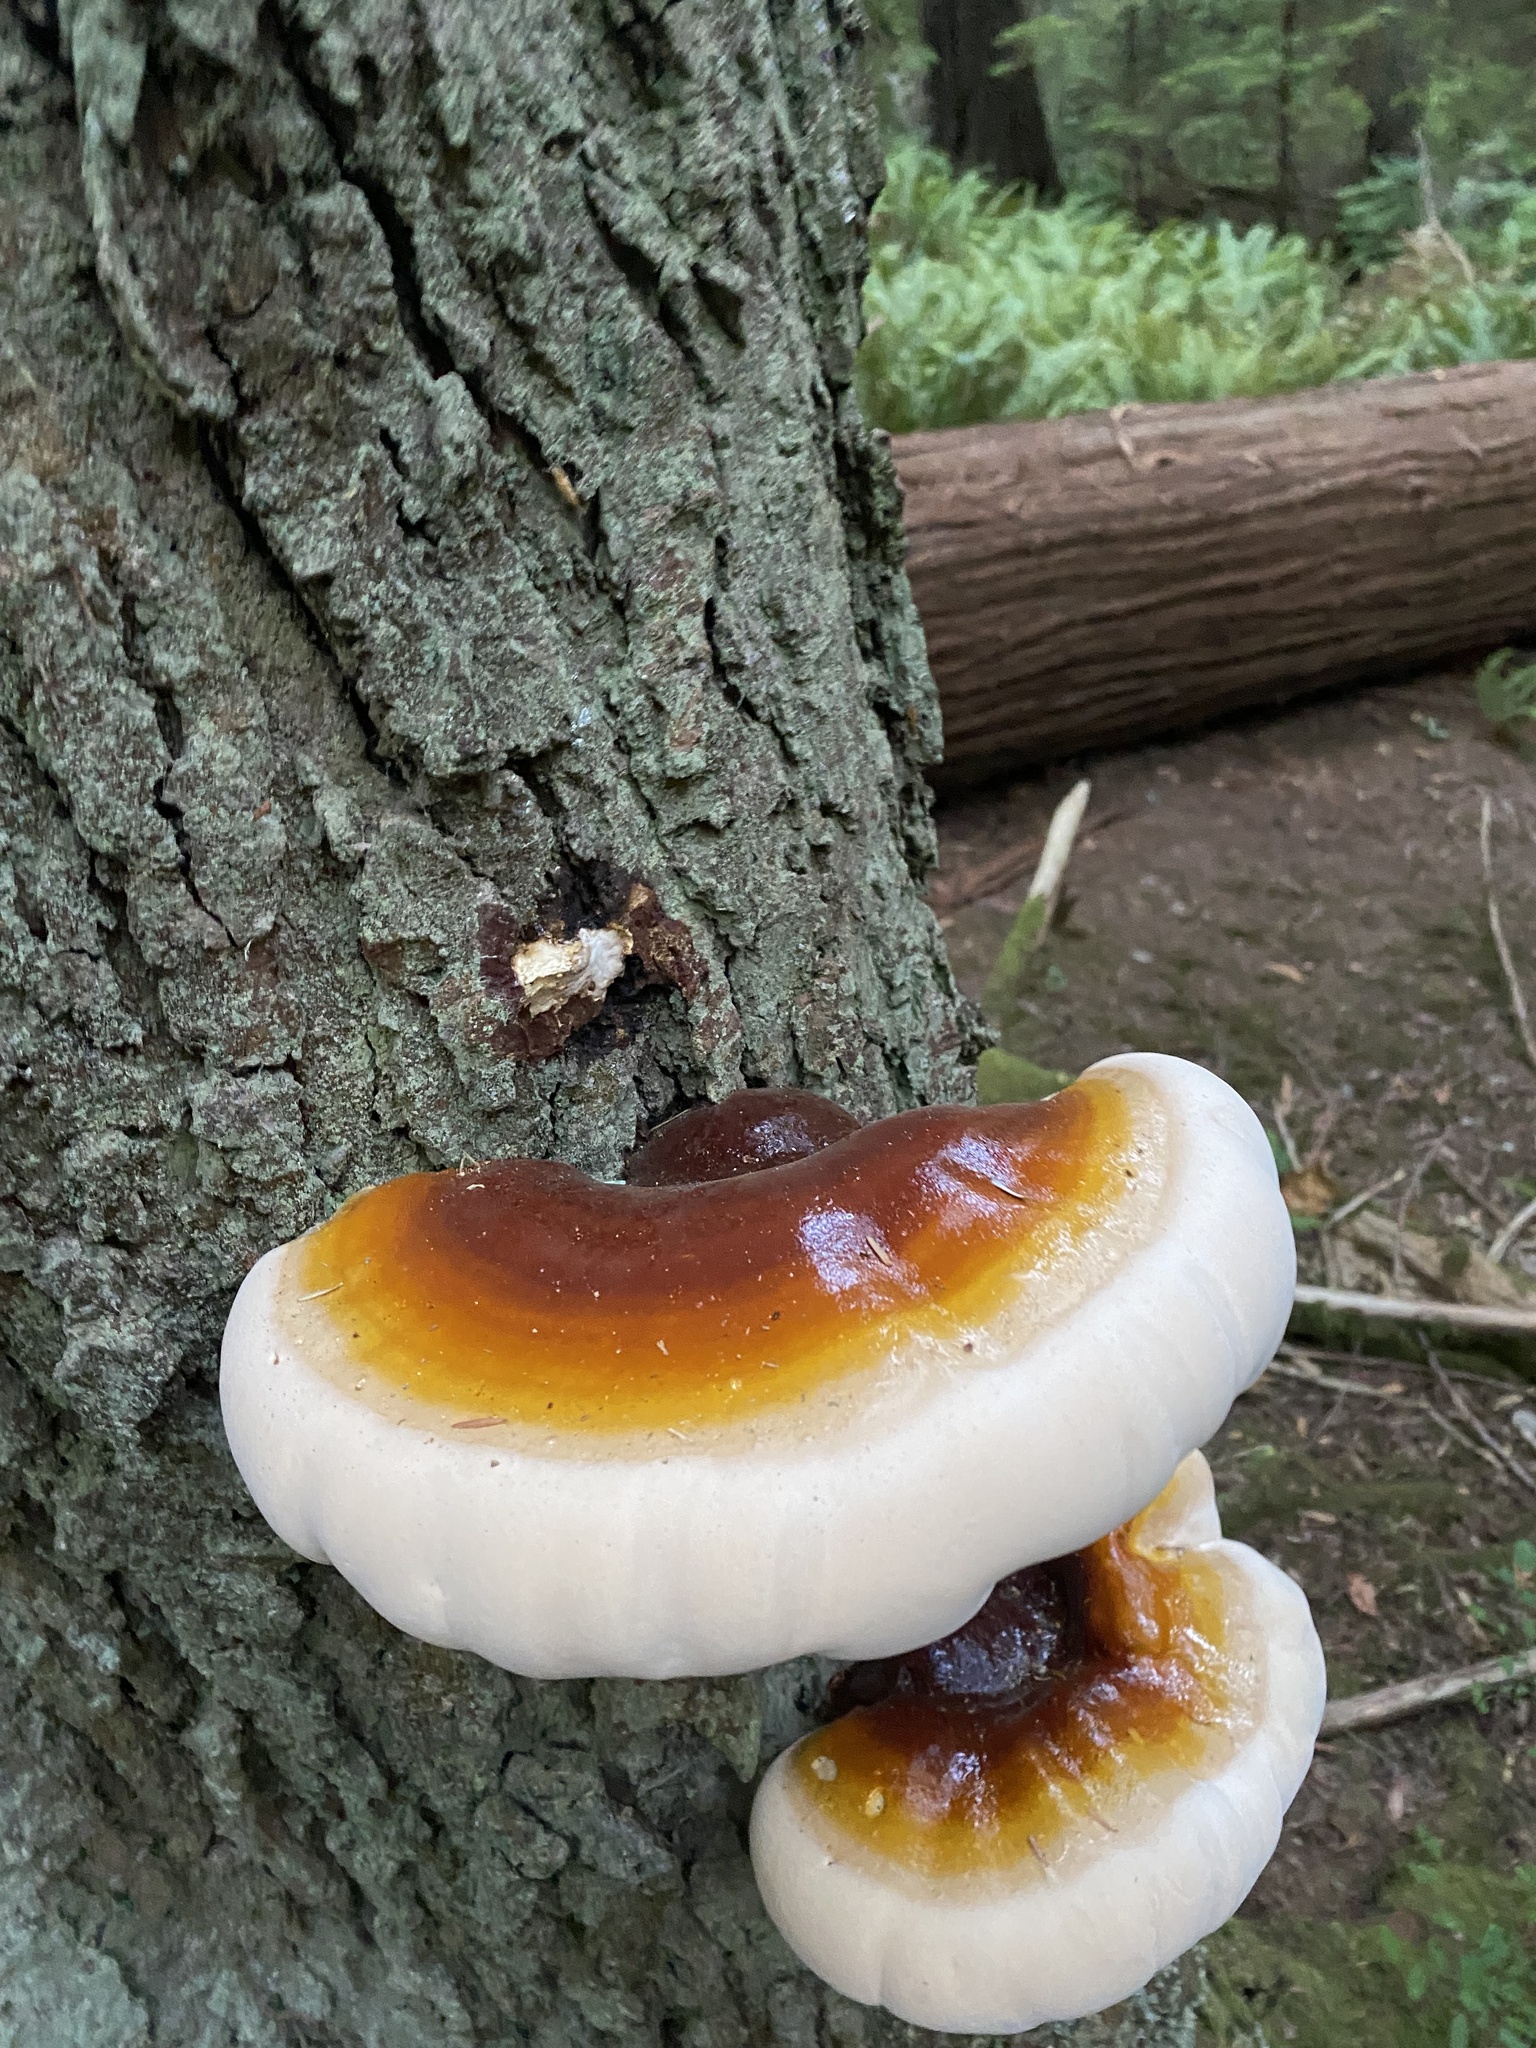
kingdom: Fungi
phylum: Basidiomycota
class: Agaricomycetes
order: Polyporales
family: Polyporaceae
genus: Ganoderma
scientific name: Ganoderma oregonense
